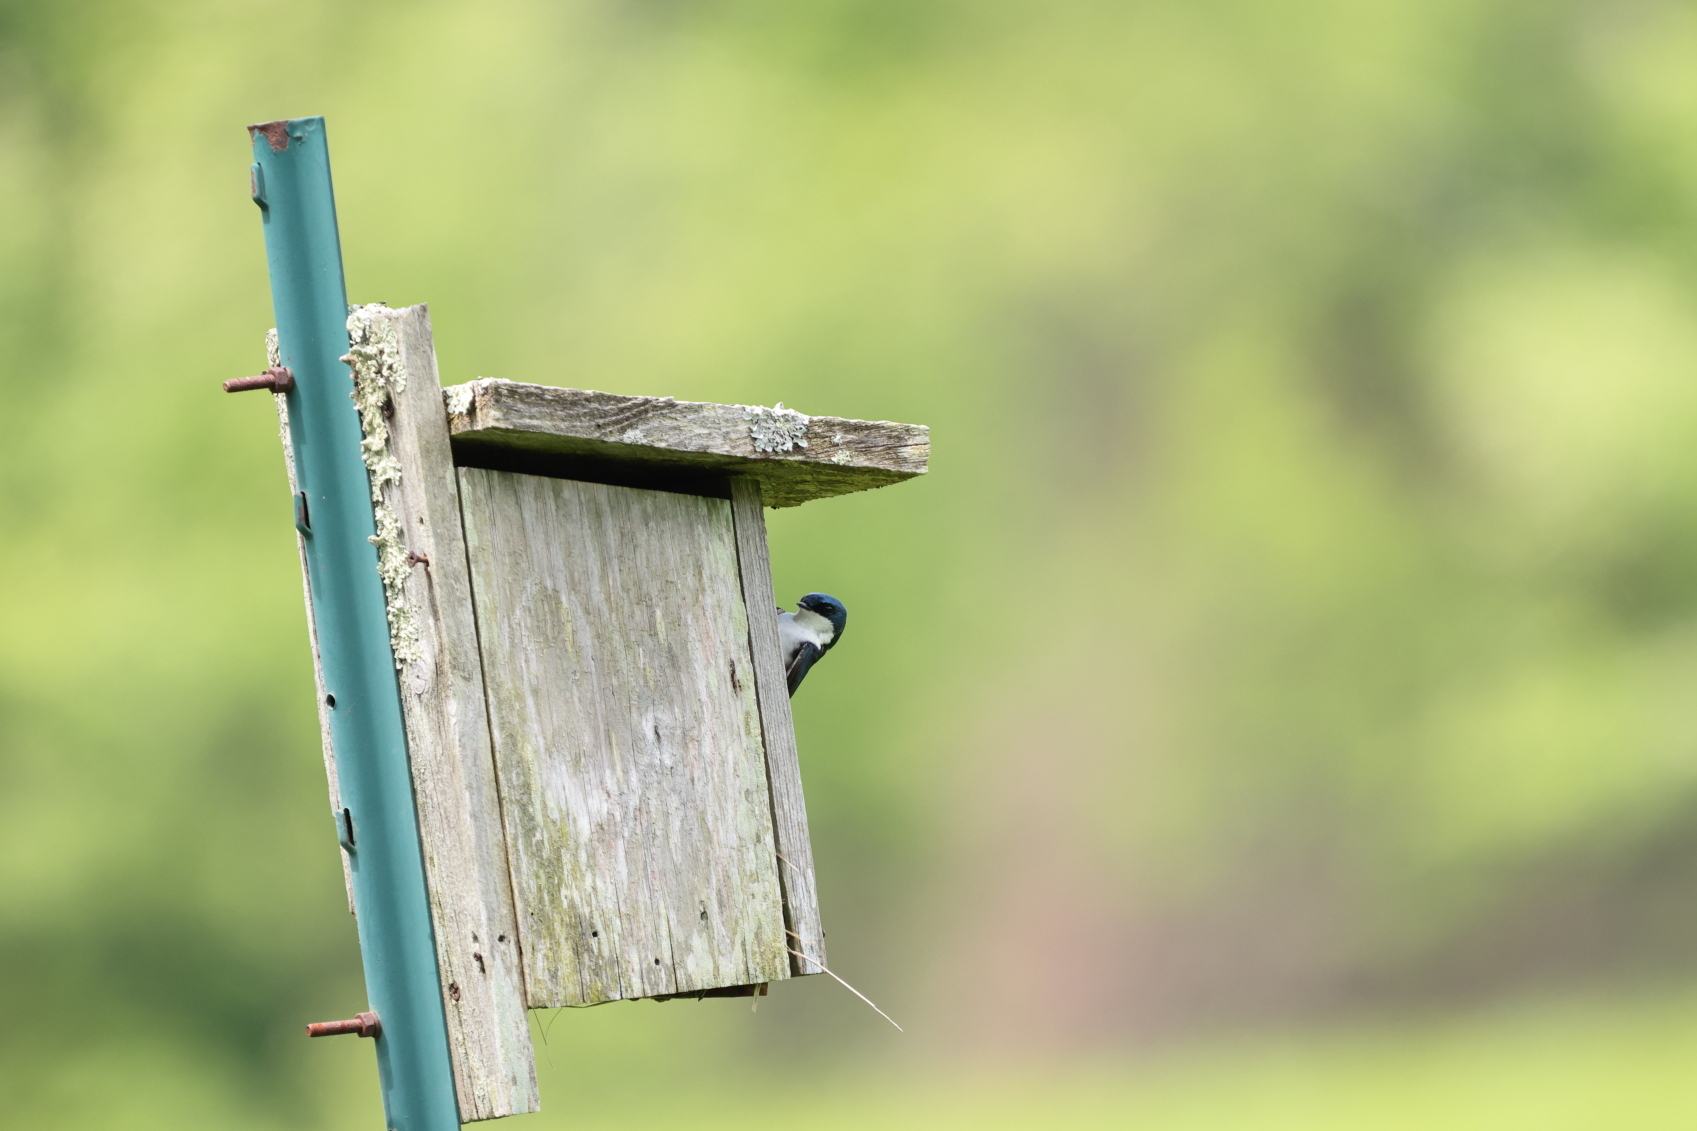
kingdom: Animalia
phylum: Chordata
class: Aves
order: Passeriformes
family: Hirundinidae
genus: Tachycineta
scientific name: Tachycineta bicolor
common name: Tree swallow
